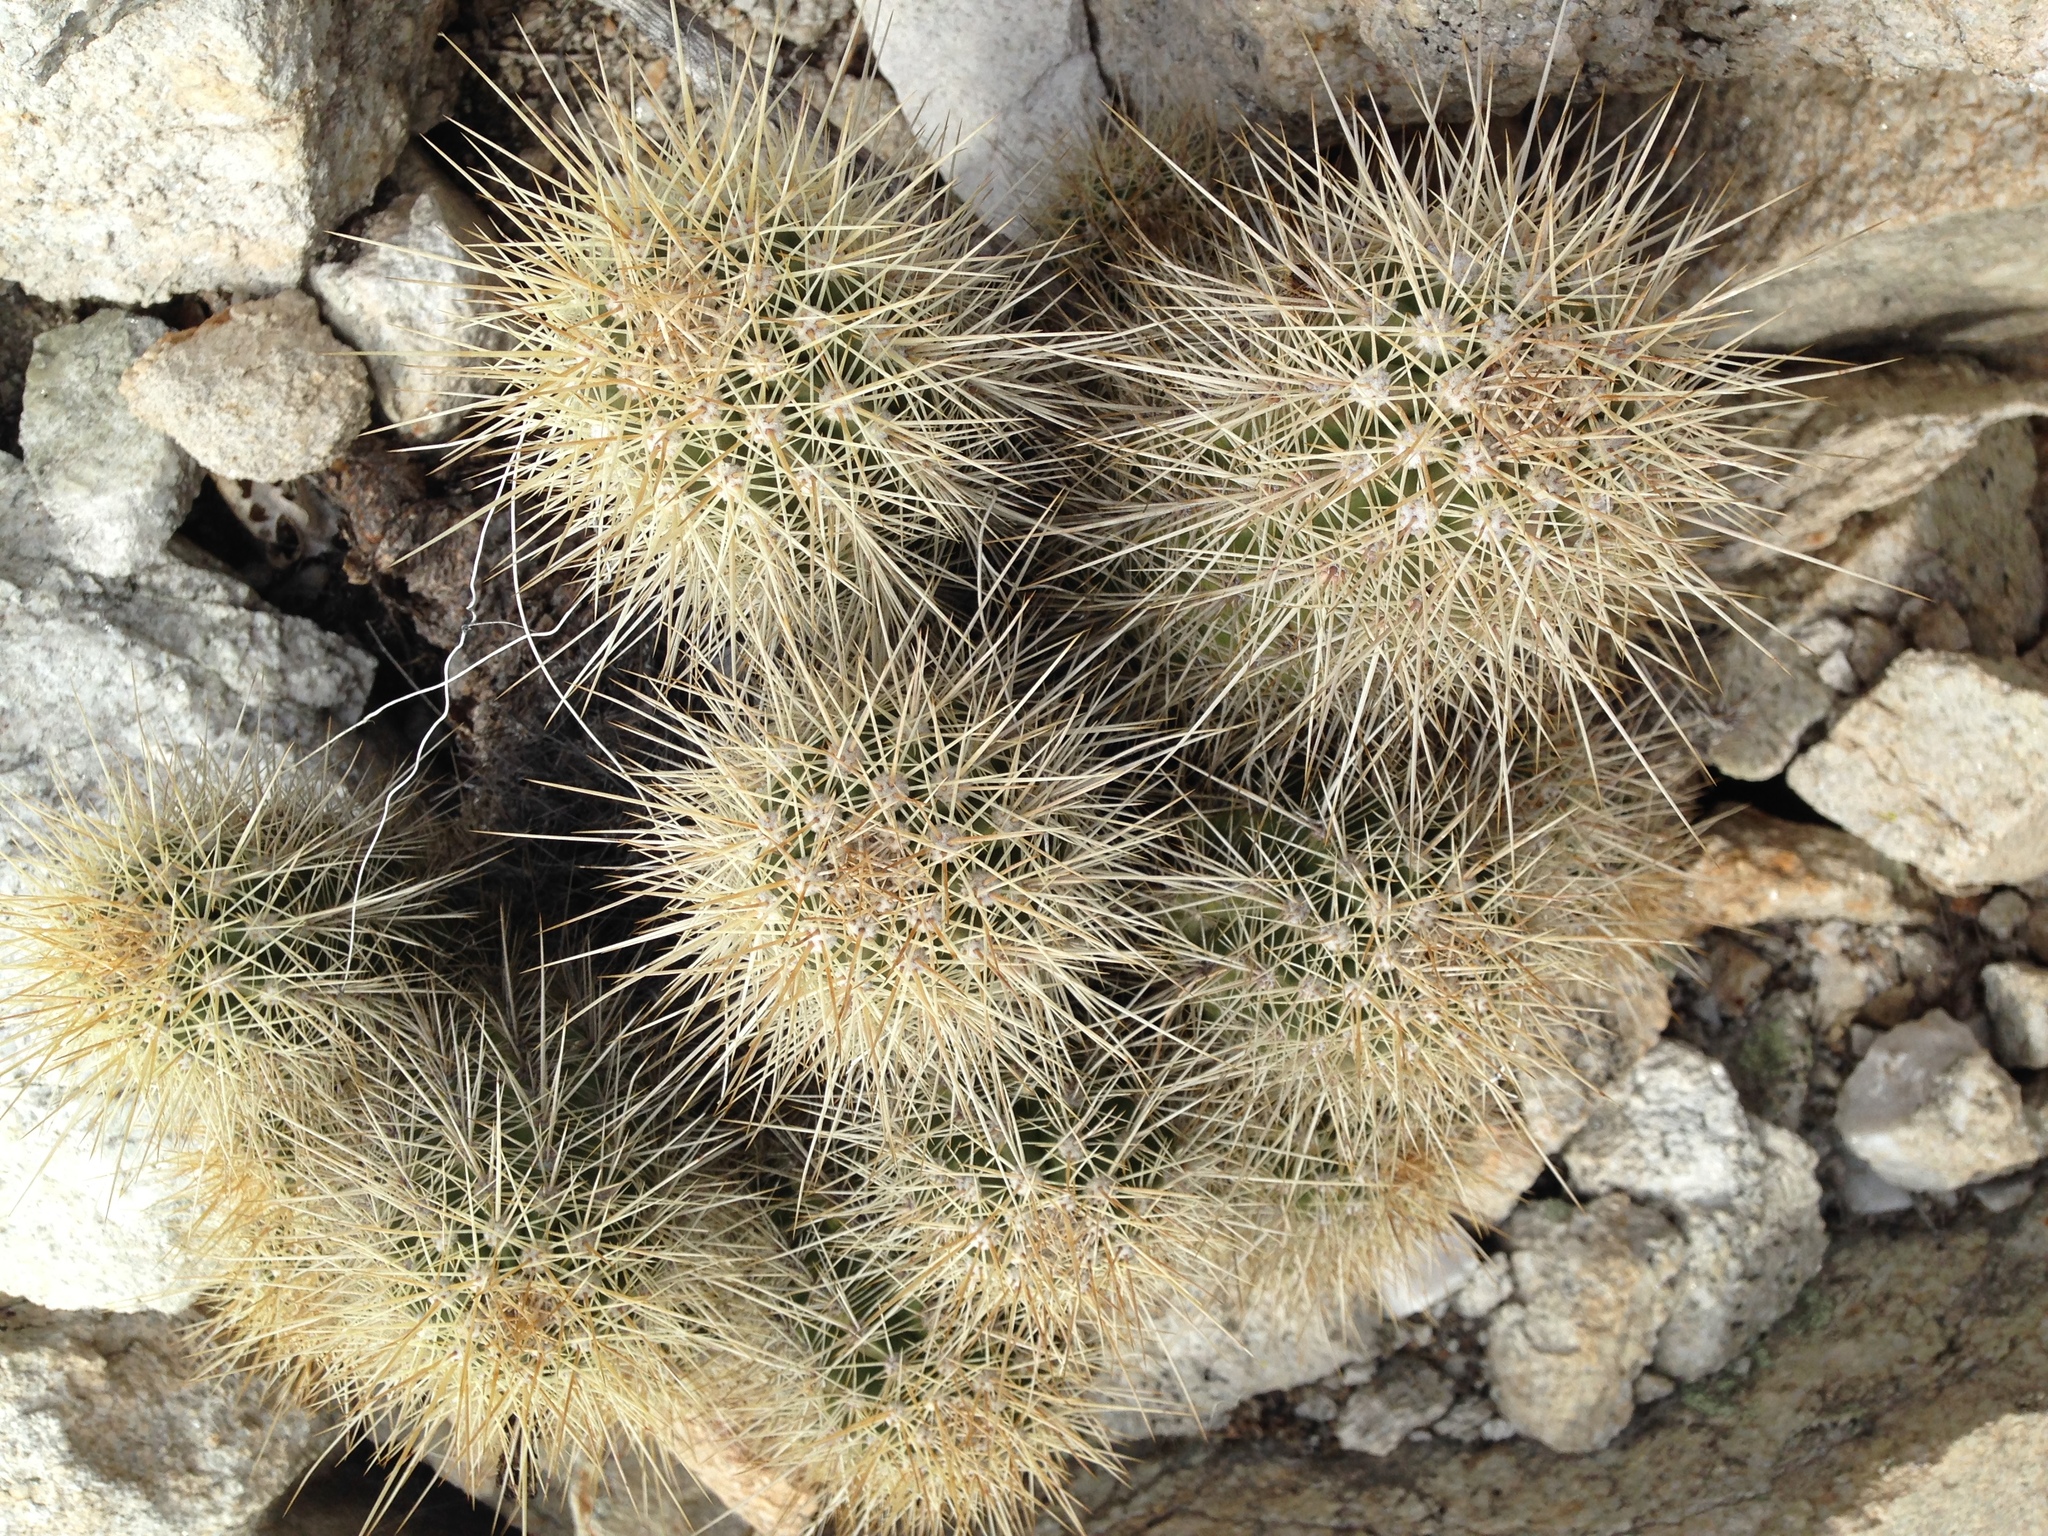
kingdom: Plantae
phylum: Tracheophyta
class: Magnoliopsida
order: Caryophyllales
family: Cactaceae
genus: Echinocereus
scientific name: Echinocereus coccineus
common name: Scarlet hedgehog cactus
